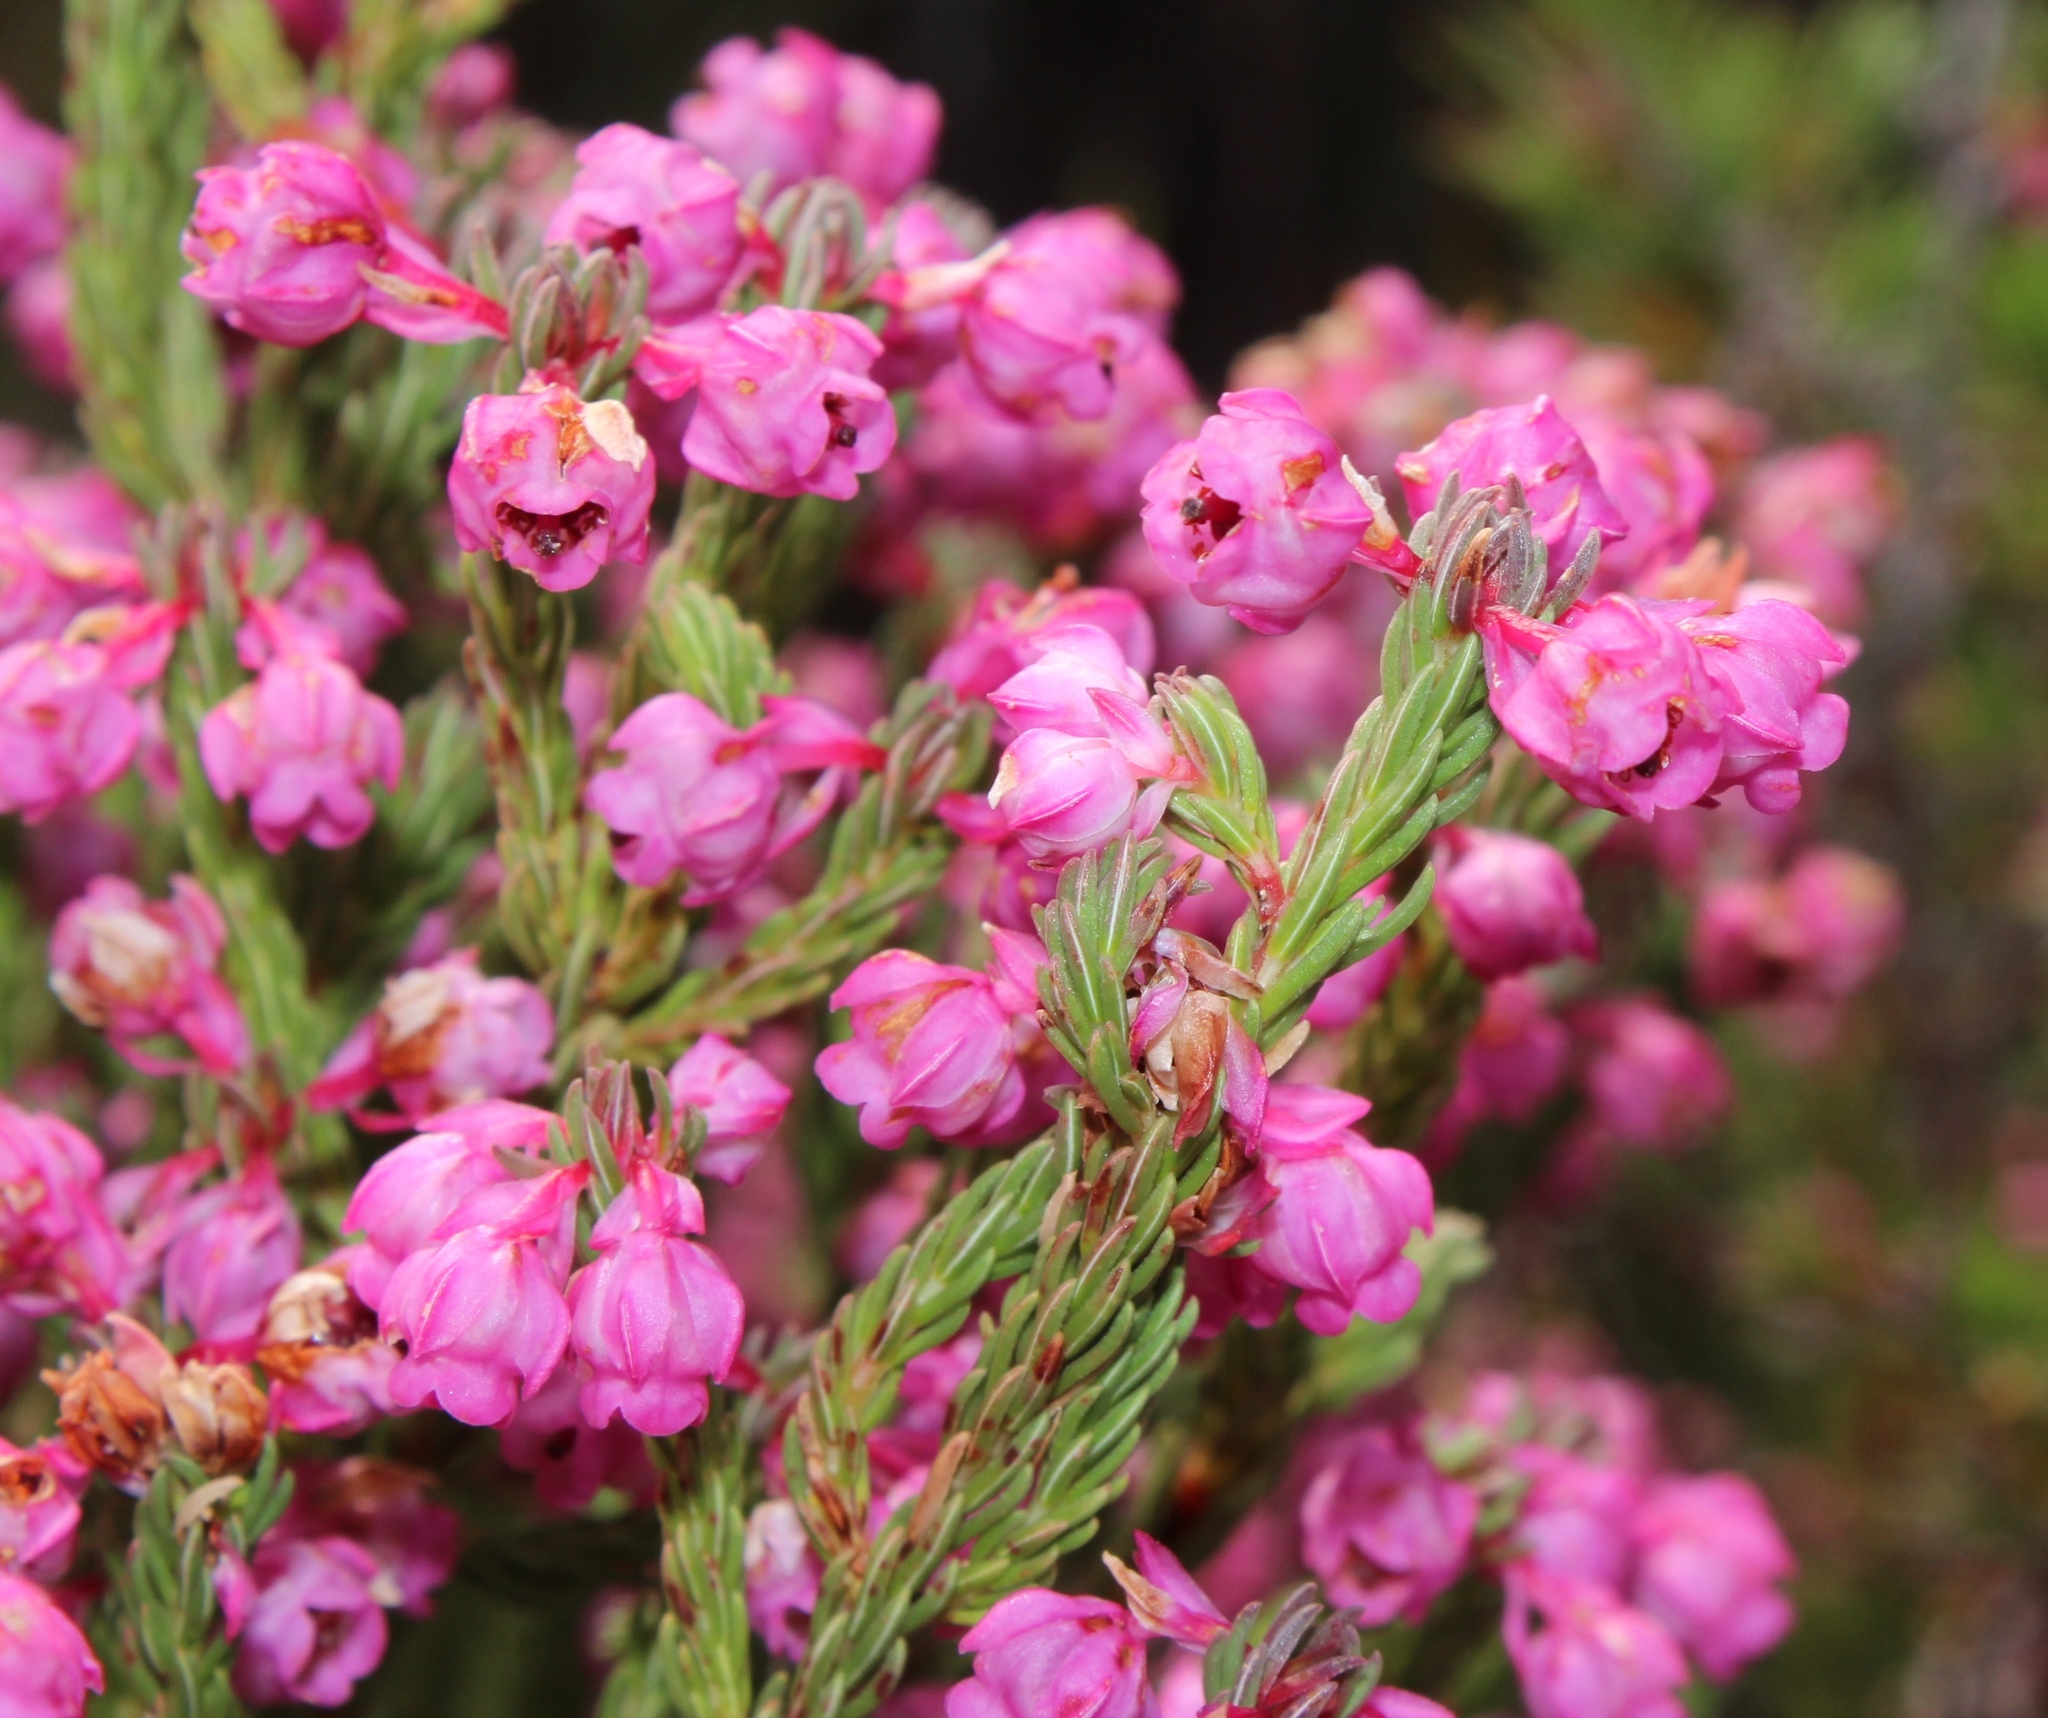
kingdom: Plantae
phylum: Tracheophyta
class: Magnoliopsida
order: Ericales
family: Ericaceae
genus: Erica
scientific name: Erica baccans
